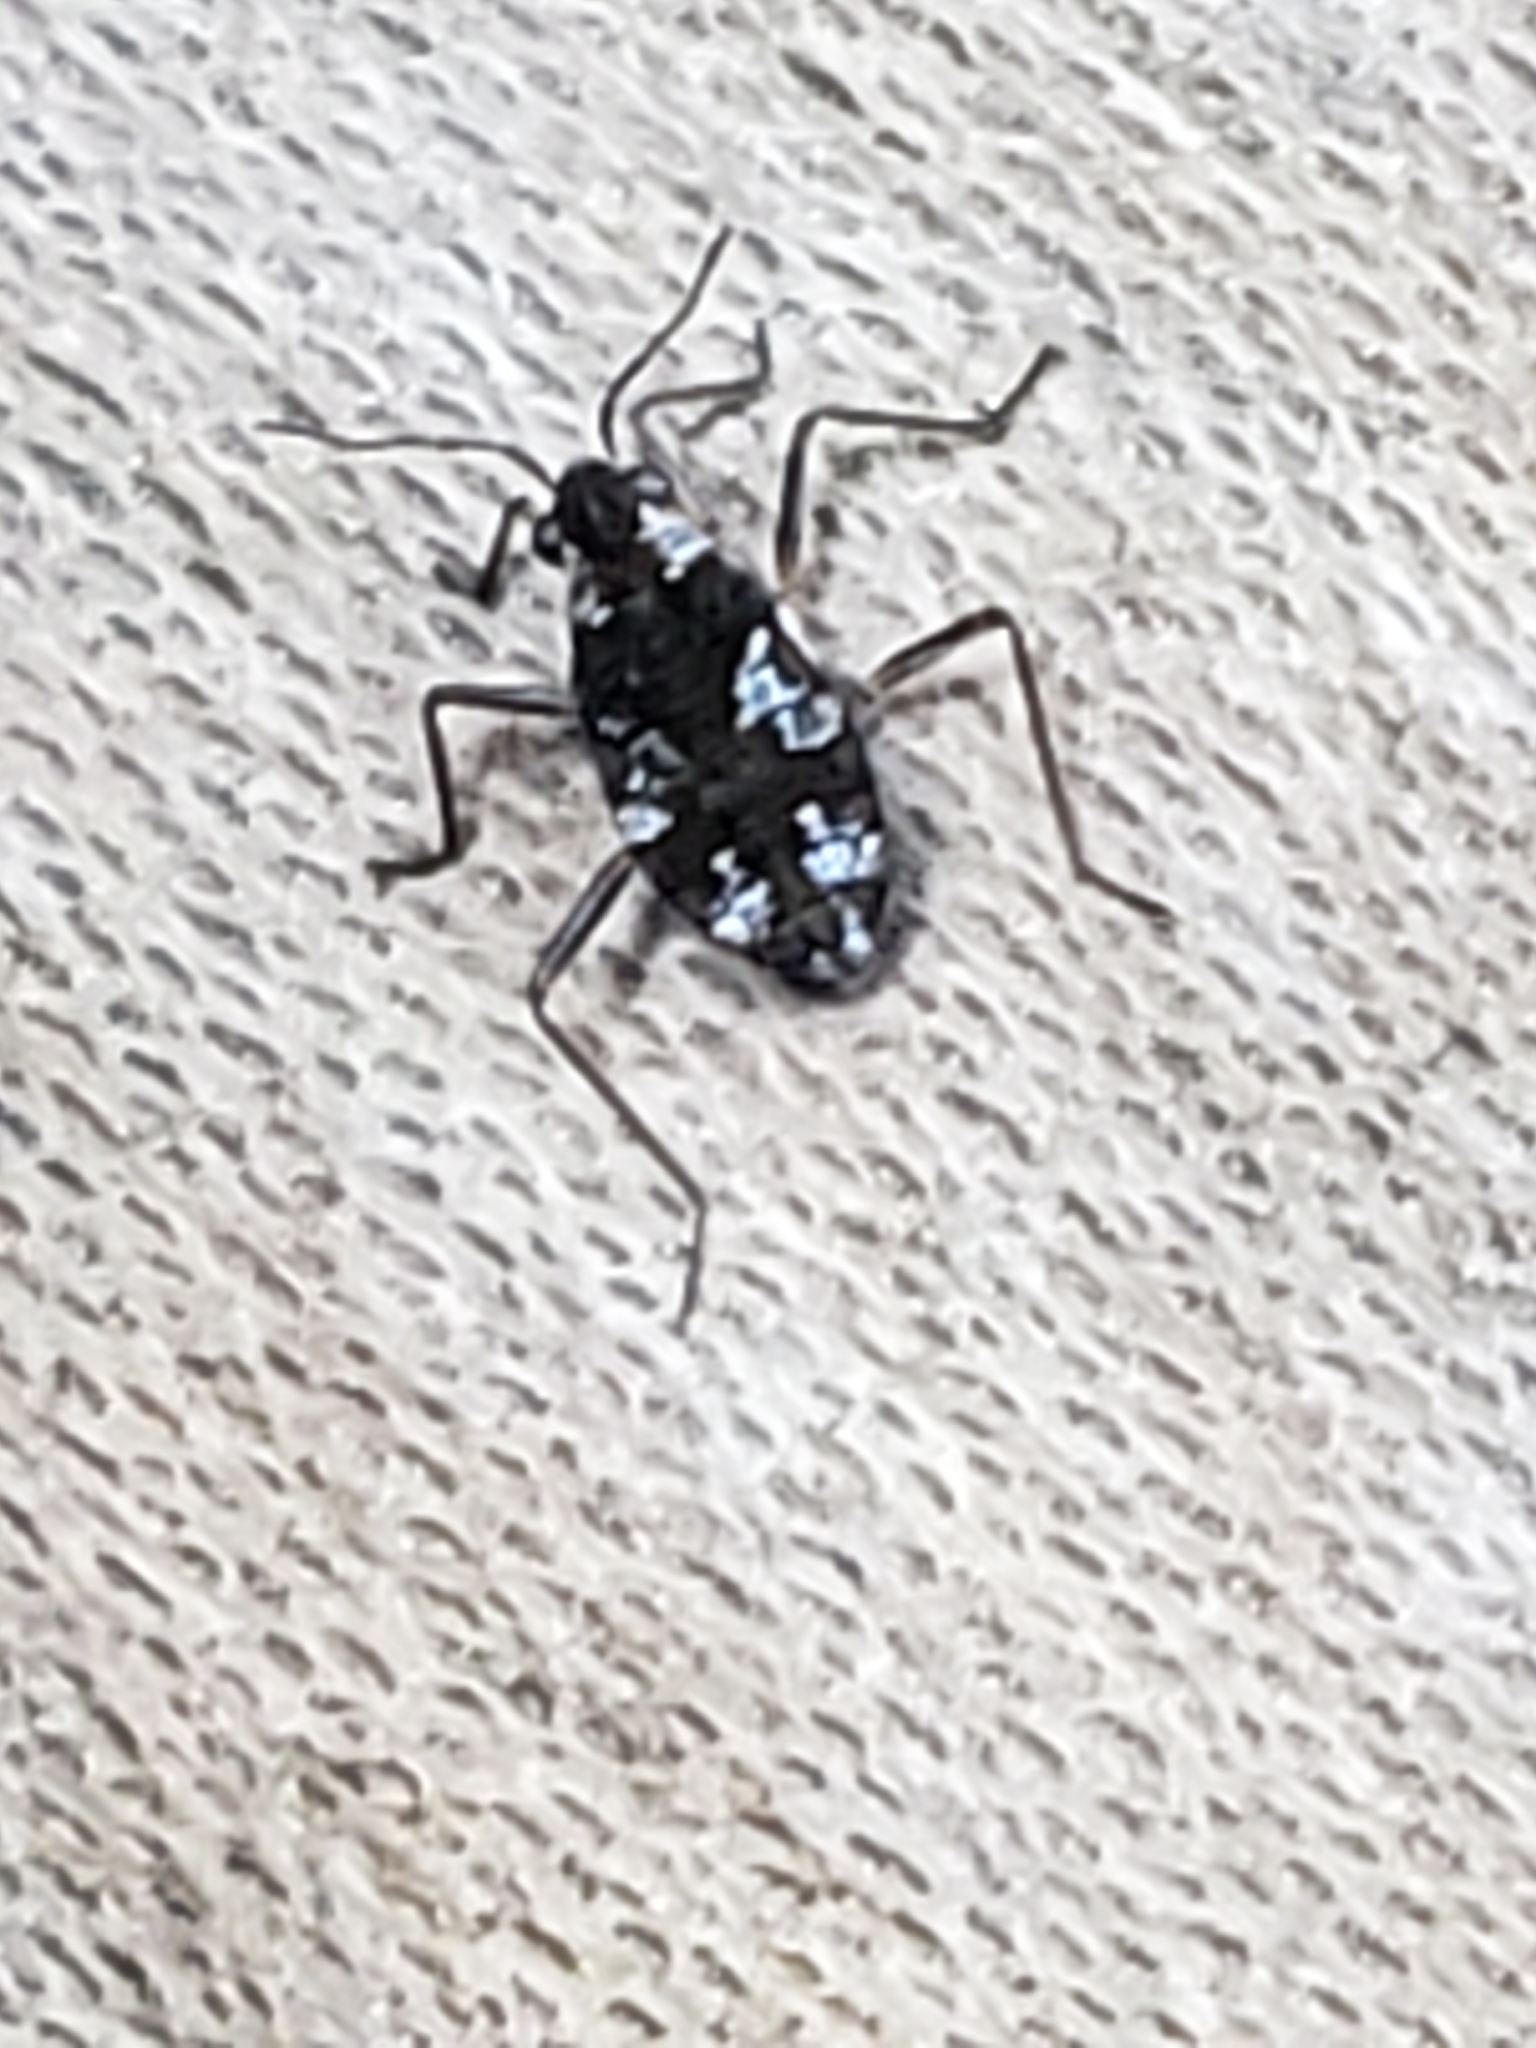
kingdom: Animalia
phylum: Arthropoda
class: Insecta
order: Hemiptera
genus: Kirkaldya
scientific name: Kirkaldya
